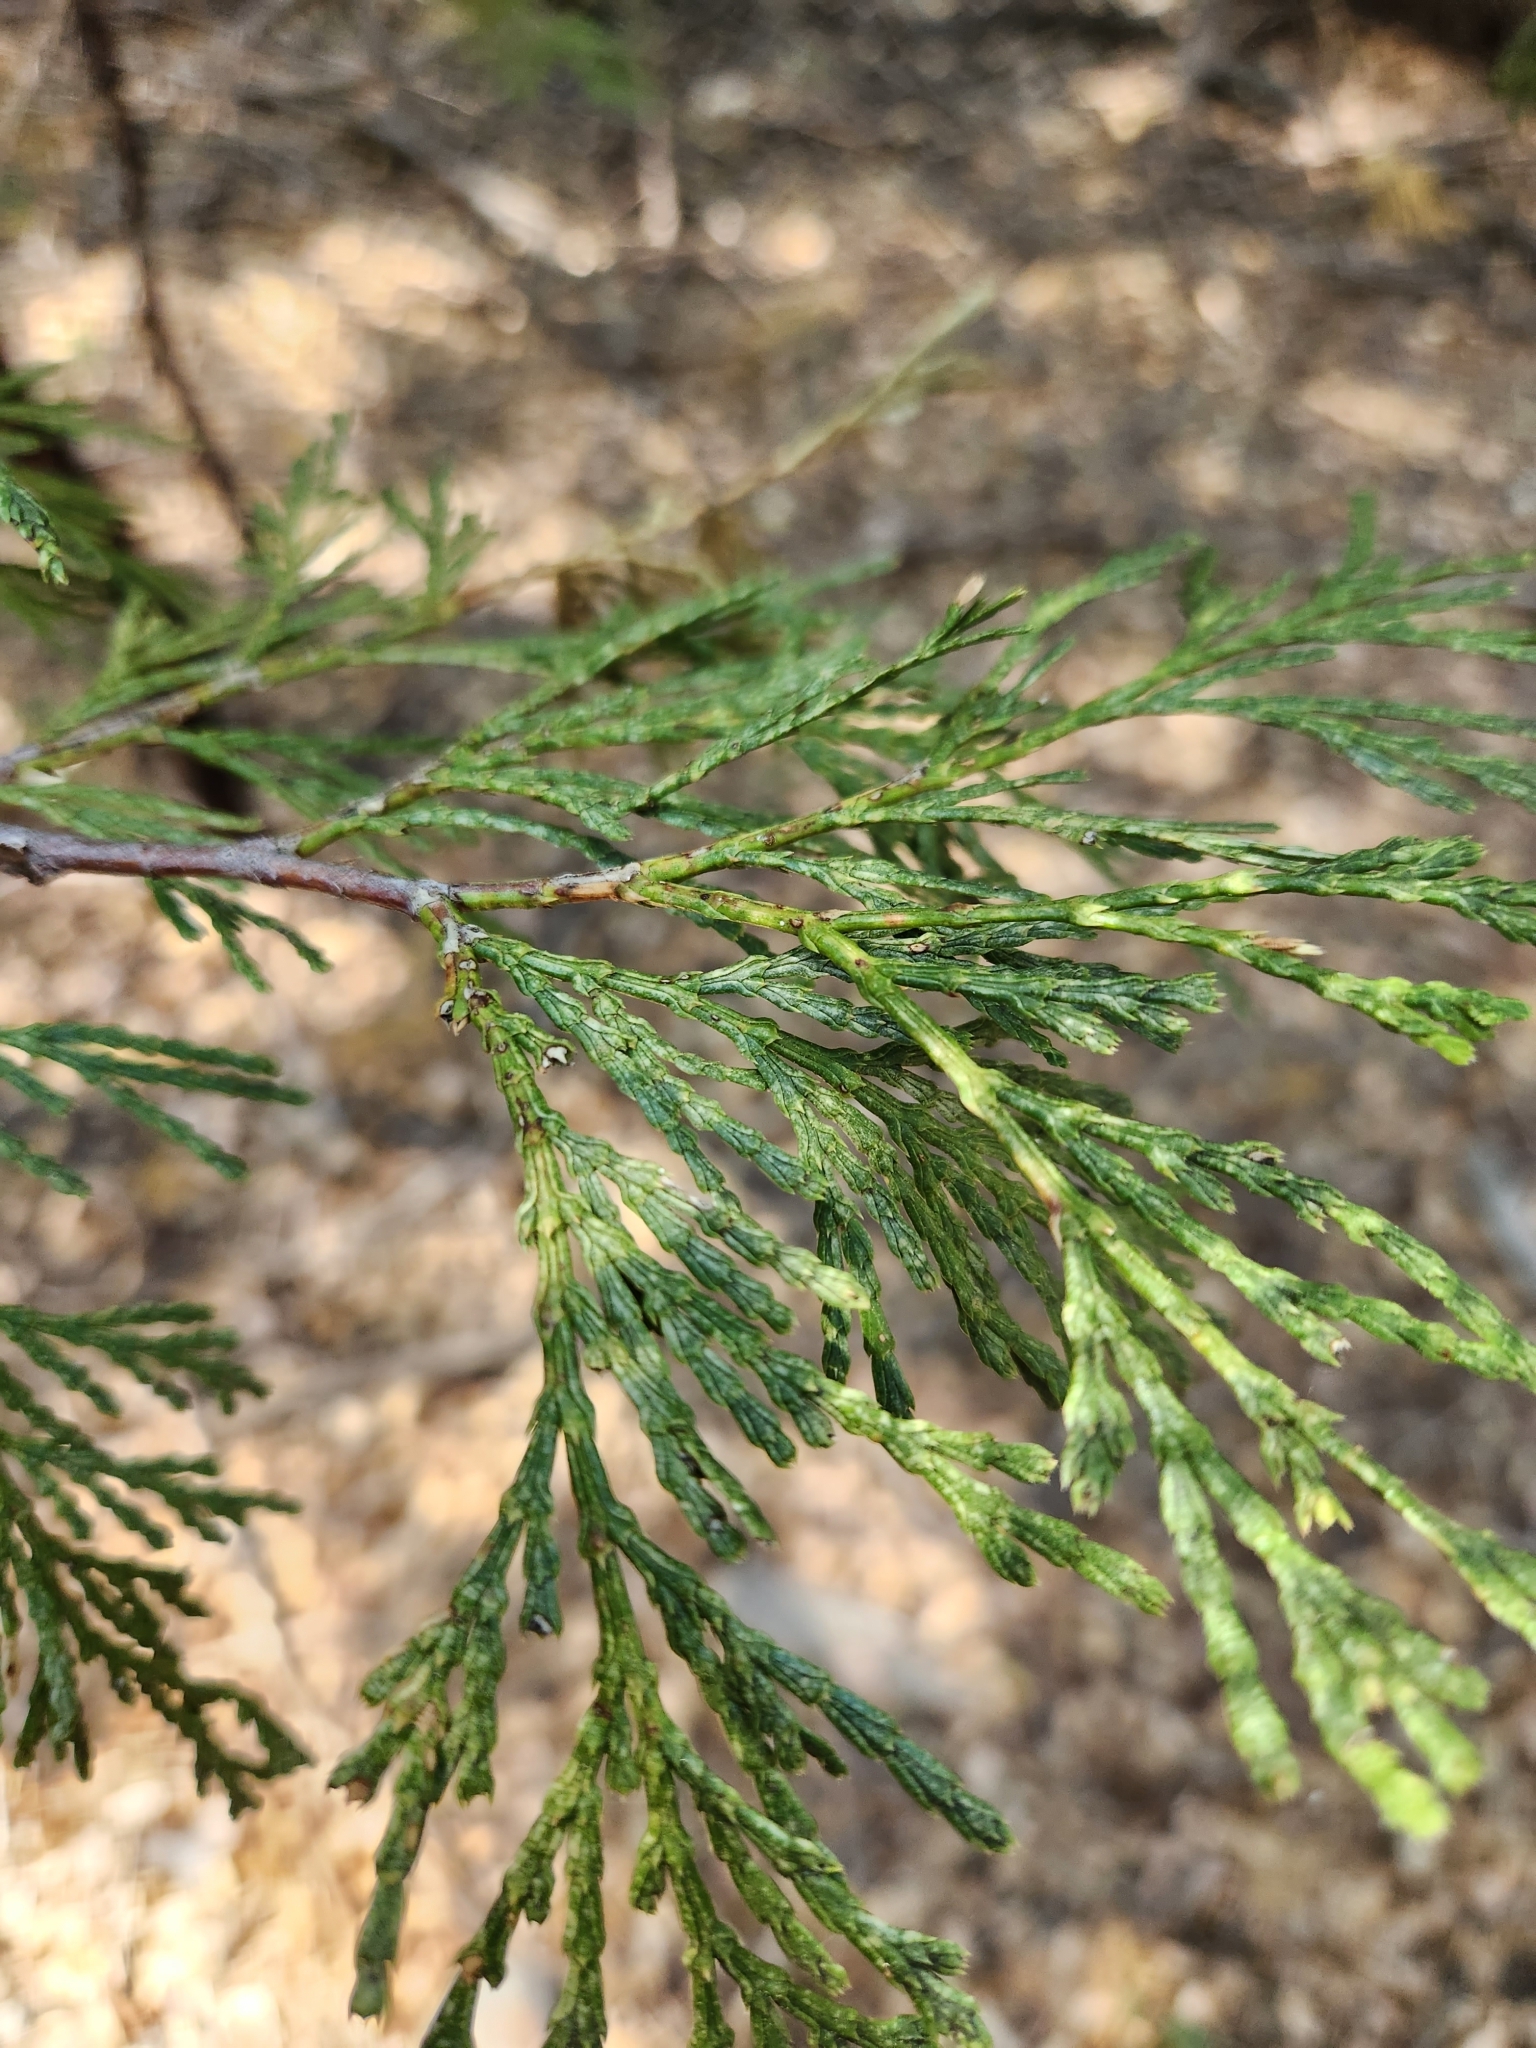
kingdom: Plantae
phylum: Tracheophyta
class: Pinopsida
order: Pinales
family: Cupressaceae
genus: Calocedrus
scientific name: Calocedrus decurrens
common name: Californian incense-cedar
